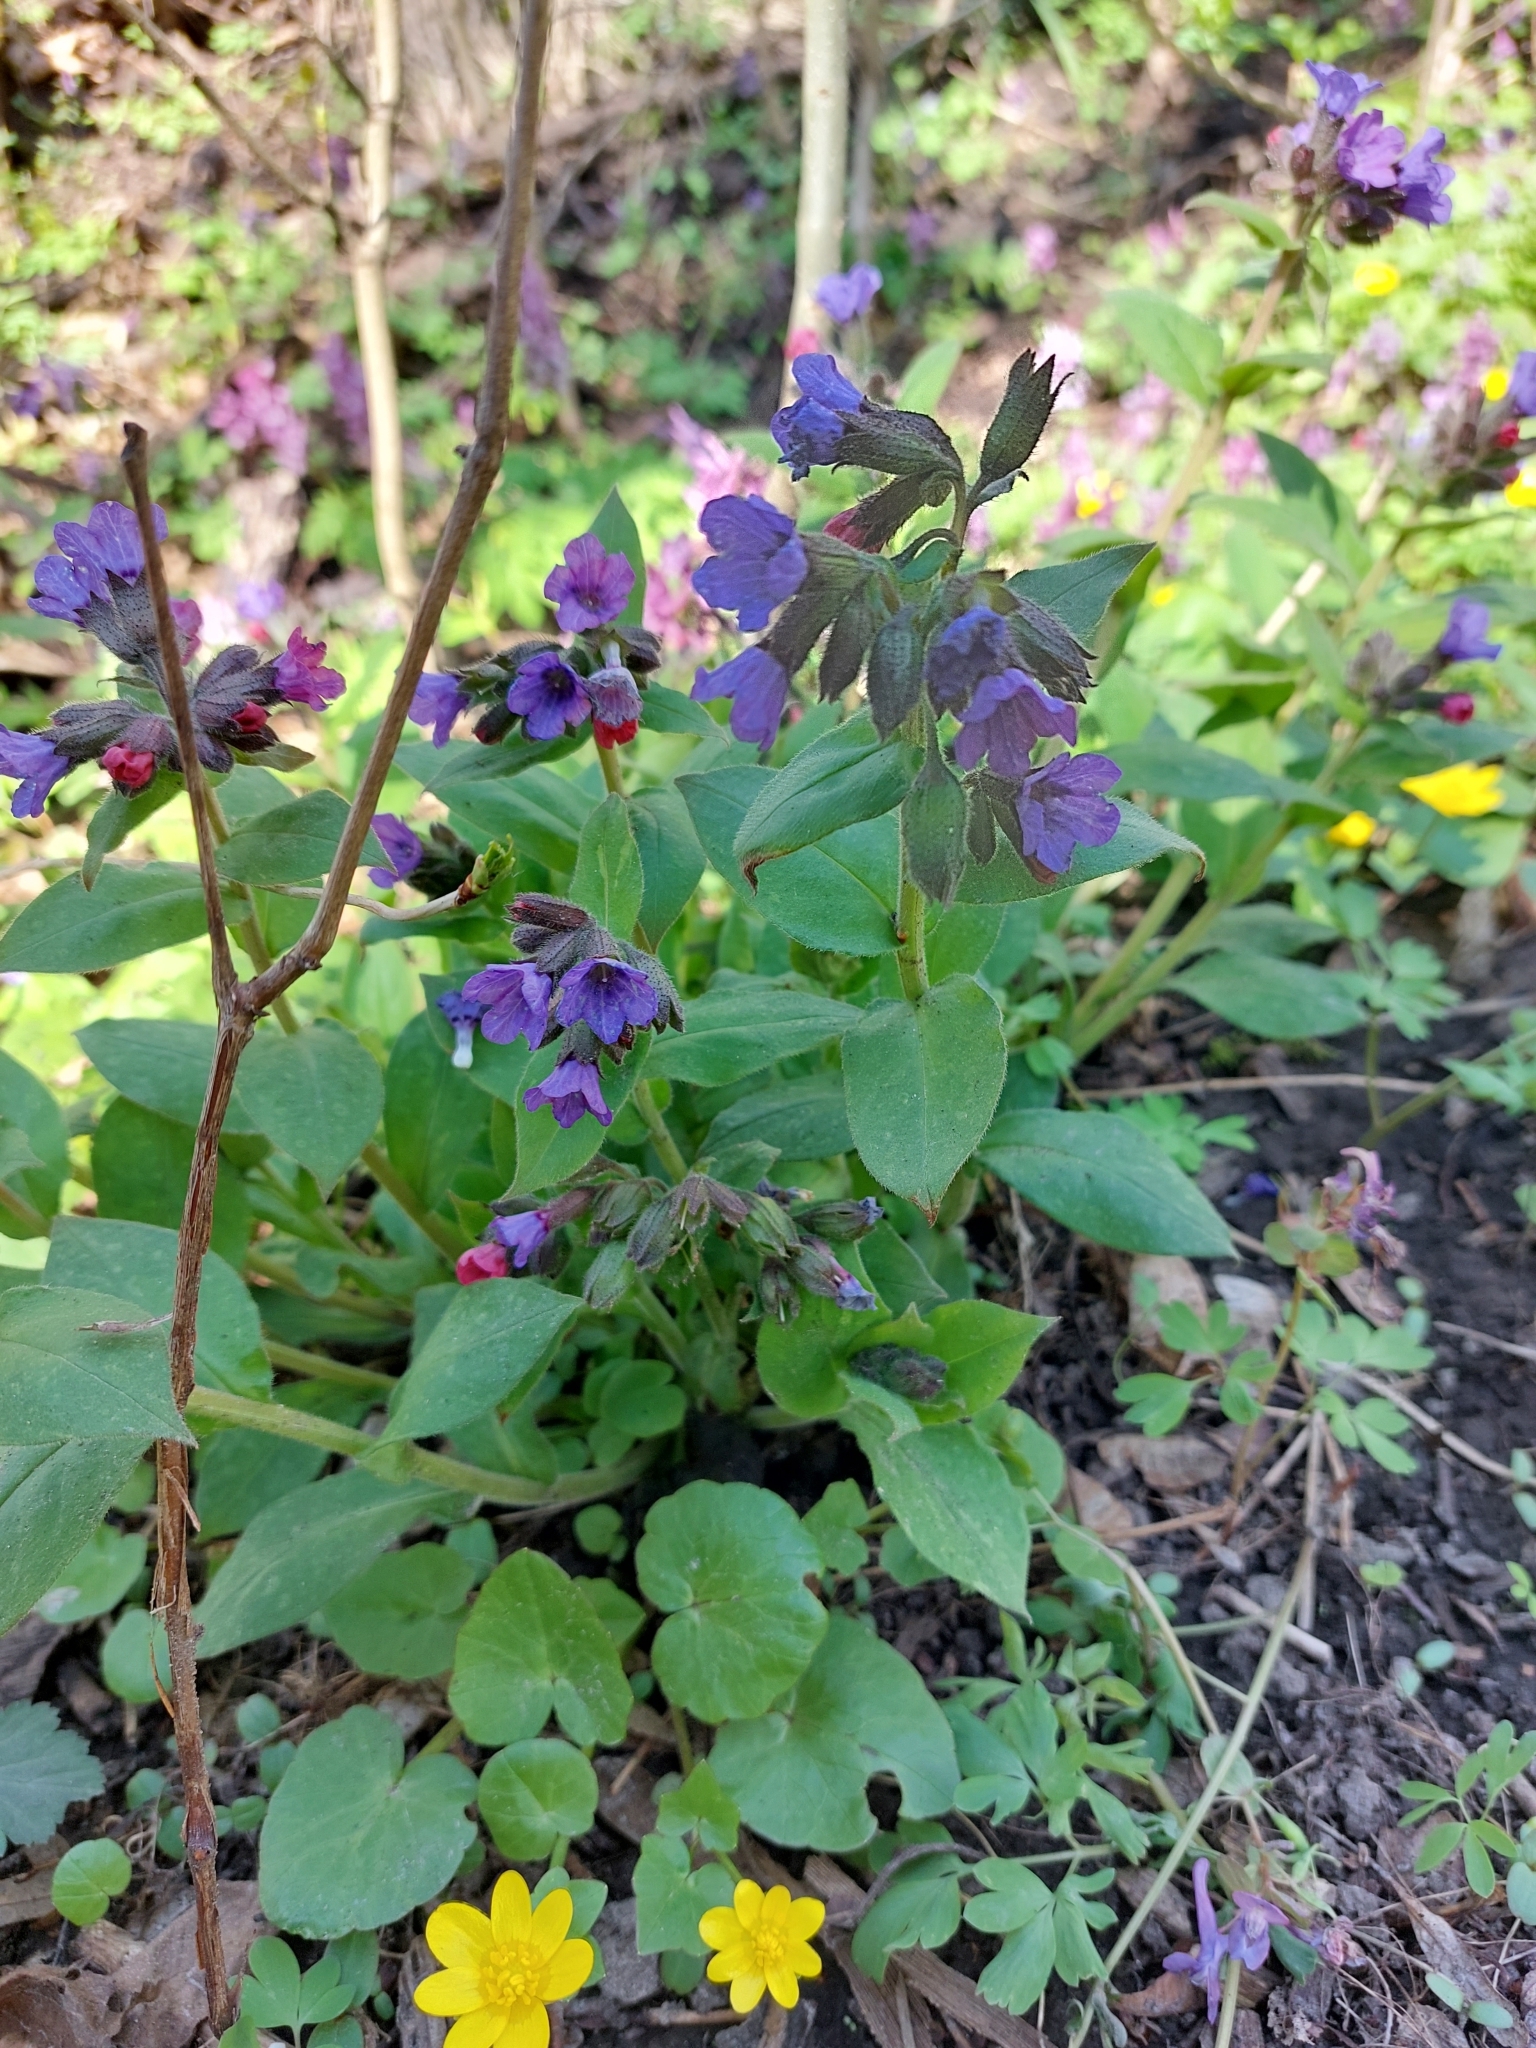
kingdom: Plantae
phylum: Tracheophyta
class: Magnoliopsida
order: Boraginales
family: Boraginaceae
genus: Pulmonaria
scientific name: Pulmonaria obscura
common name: Suffolk lungwort
